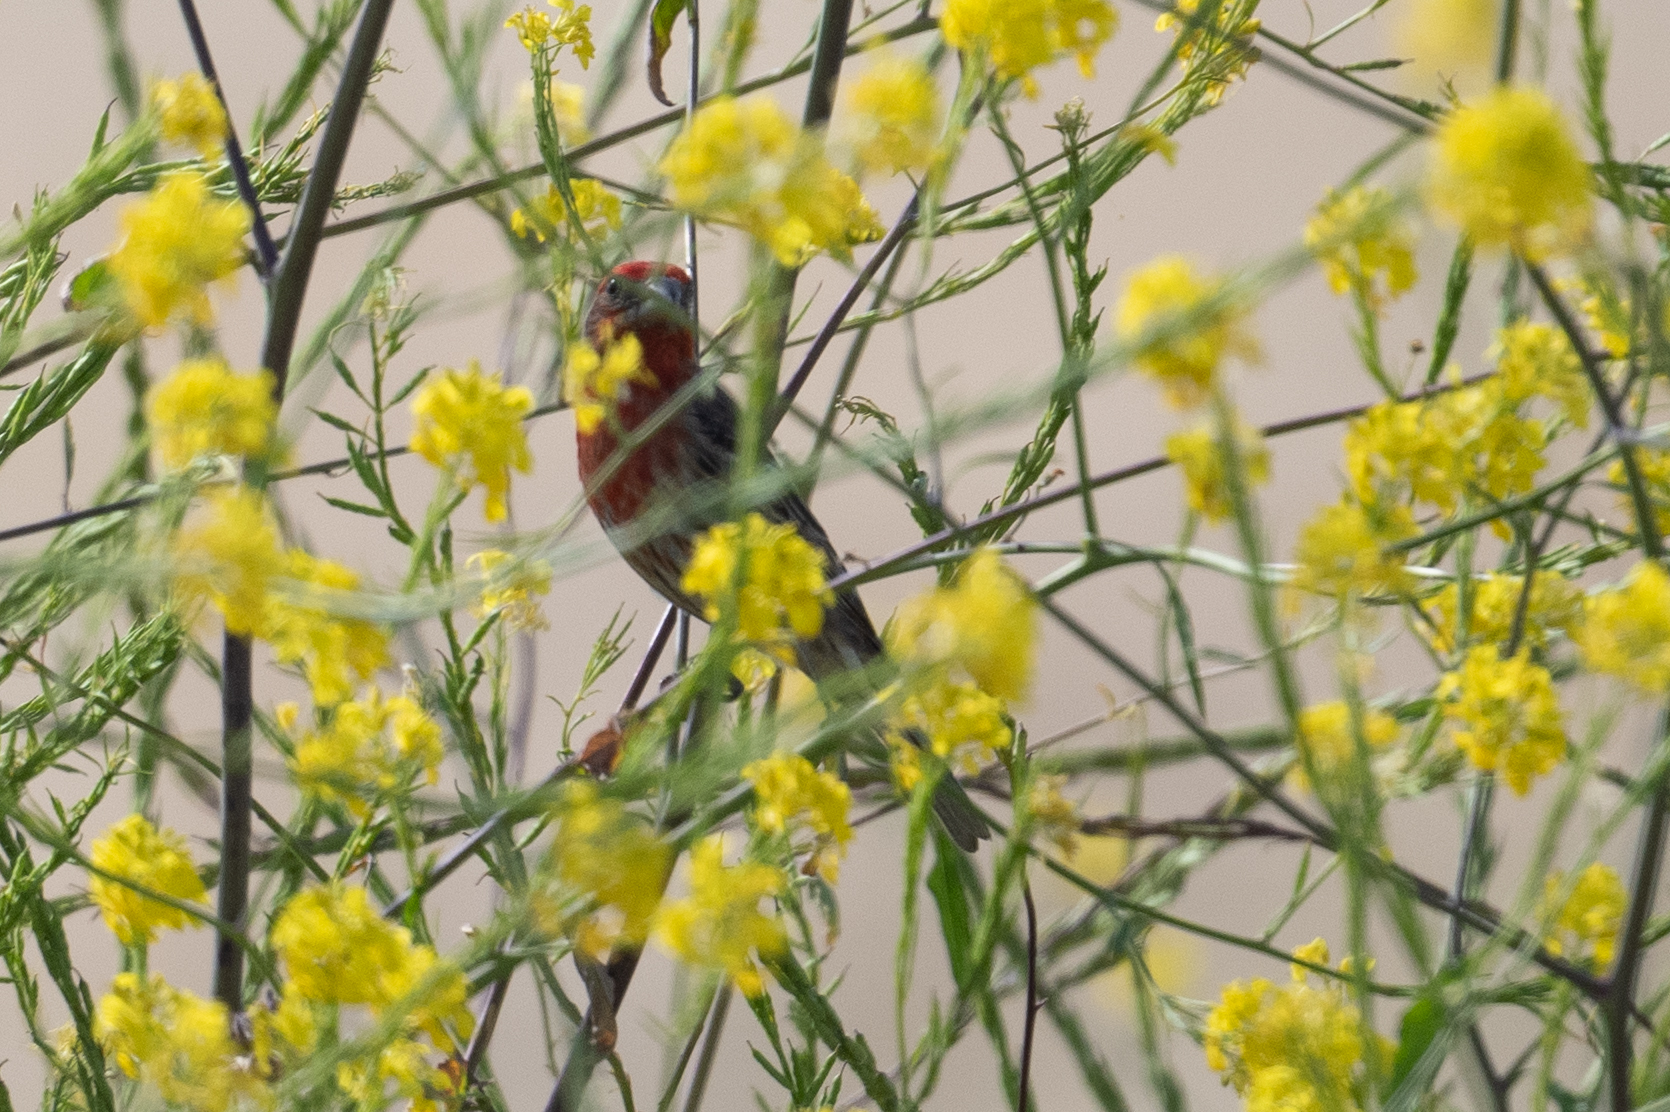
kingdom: Animalia
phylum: Chordata
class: Aves
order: Passeriformes
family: Fringillidae
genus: Haemorhous
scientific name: Haemorhous mexicanus
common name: House finch
